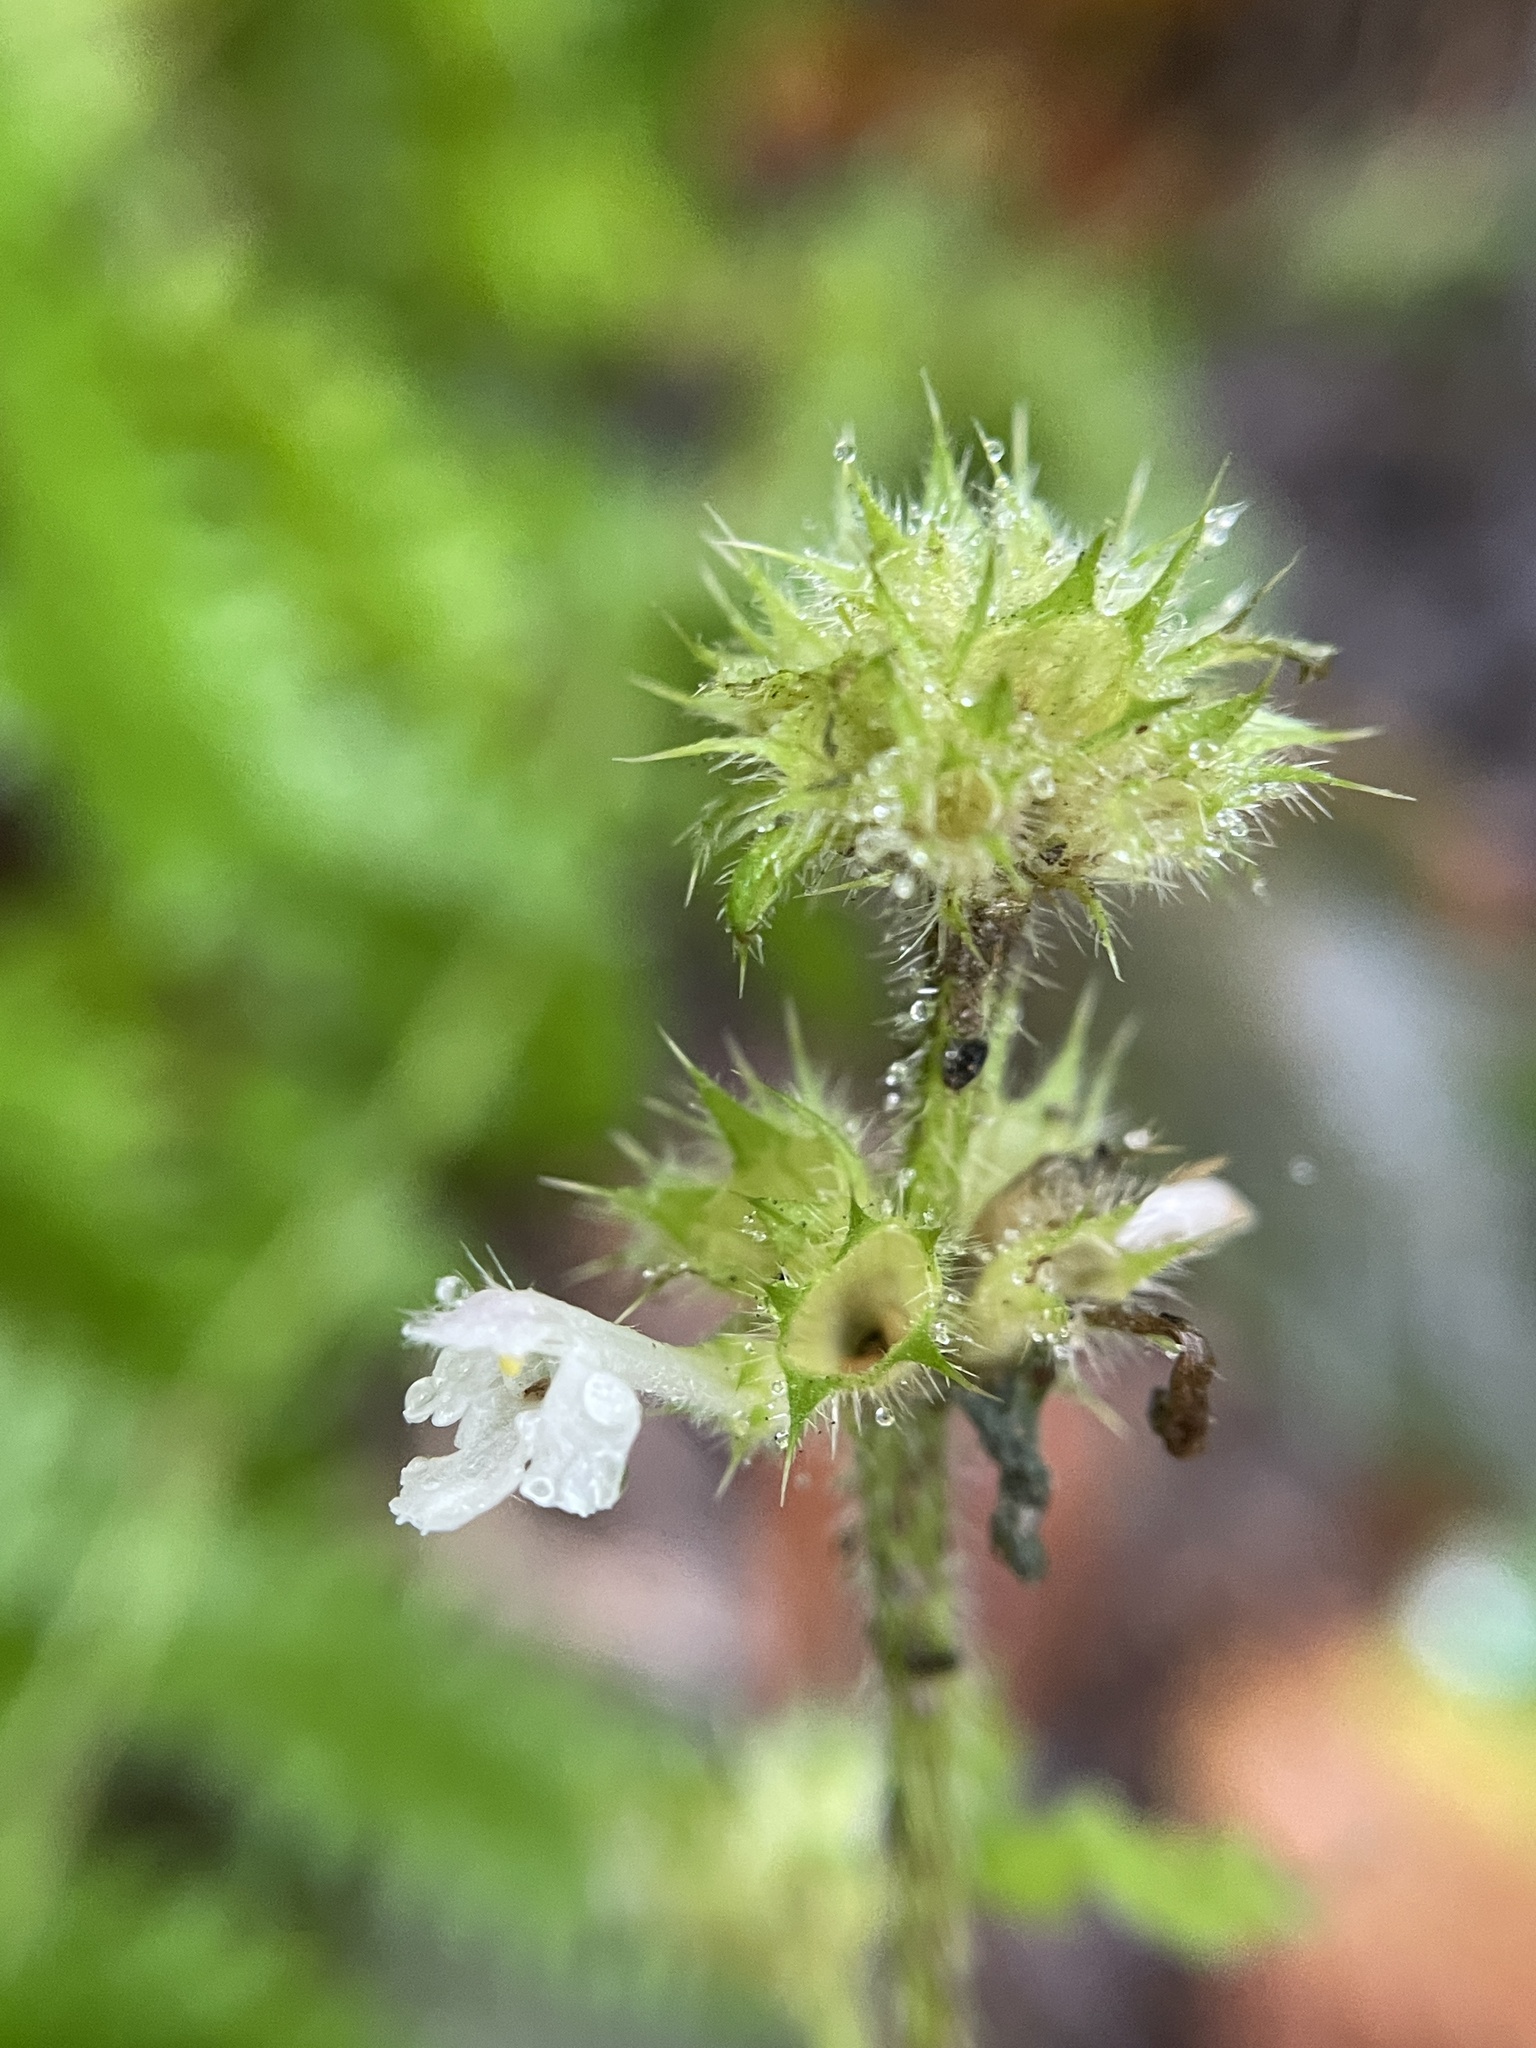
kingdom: Plantae
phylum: Tracheophyta
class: Magnoliopsida
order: Lamiales
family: Lamiaceae
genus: Galeopsis
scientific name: Galeopsis tetrahit
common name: Common hemp-nettle
